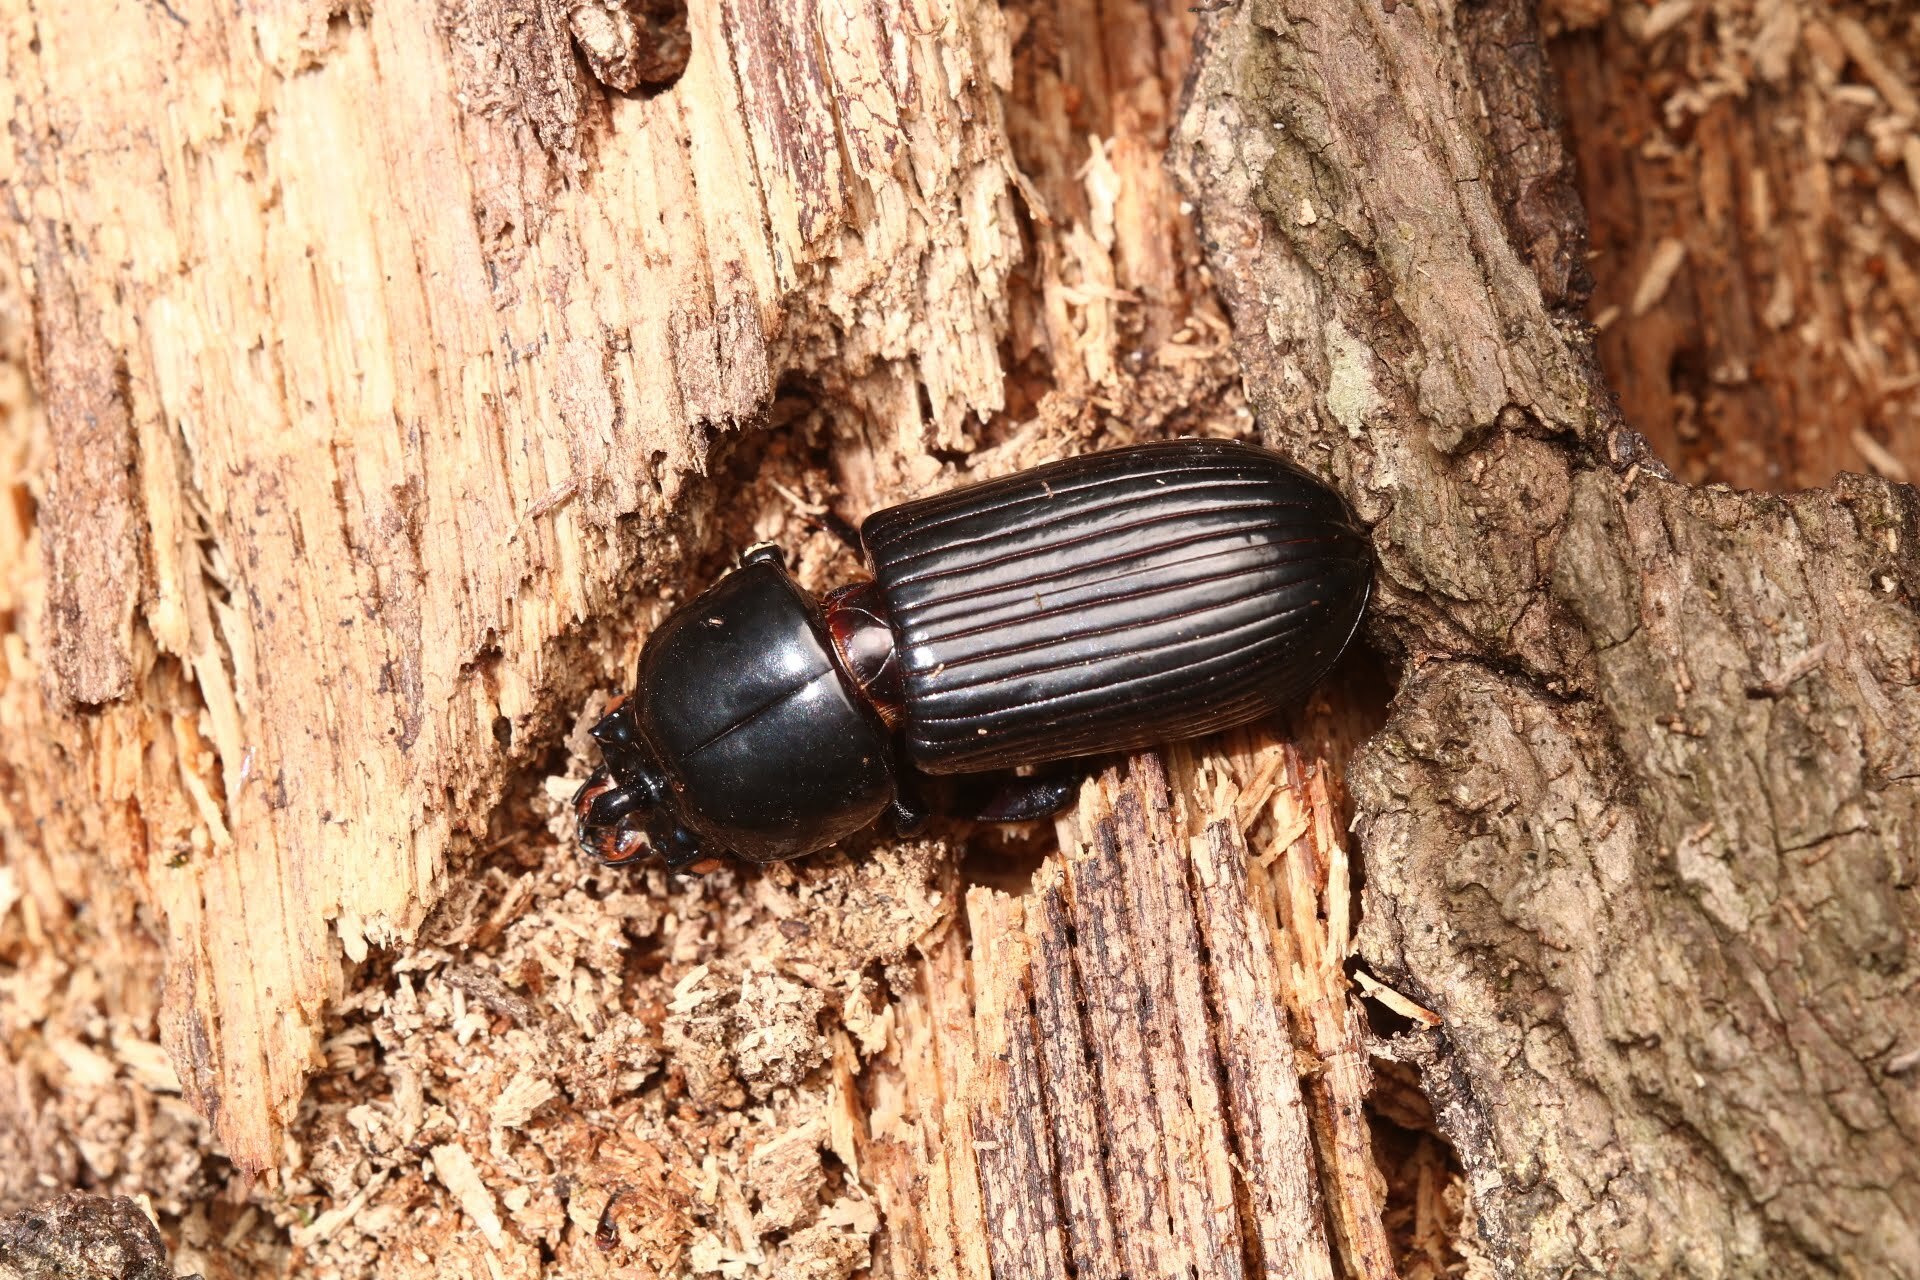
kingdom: Animalia
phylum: Arthropoda
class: Insecta
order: Coleoptera
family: Passalidae
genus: Odontotaenius
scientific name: Odontotaenius disjunctus
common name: Patent leather beetle
